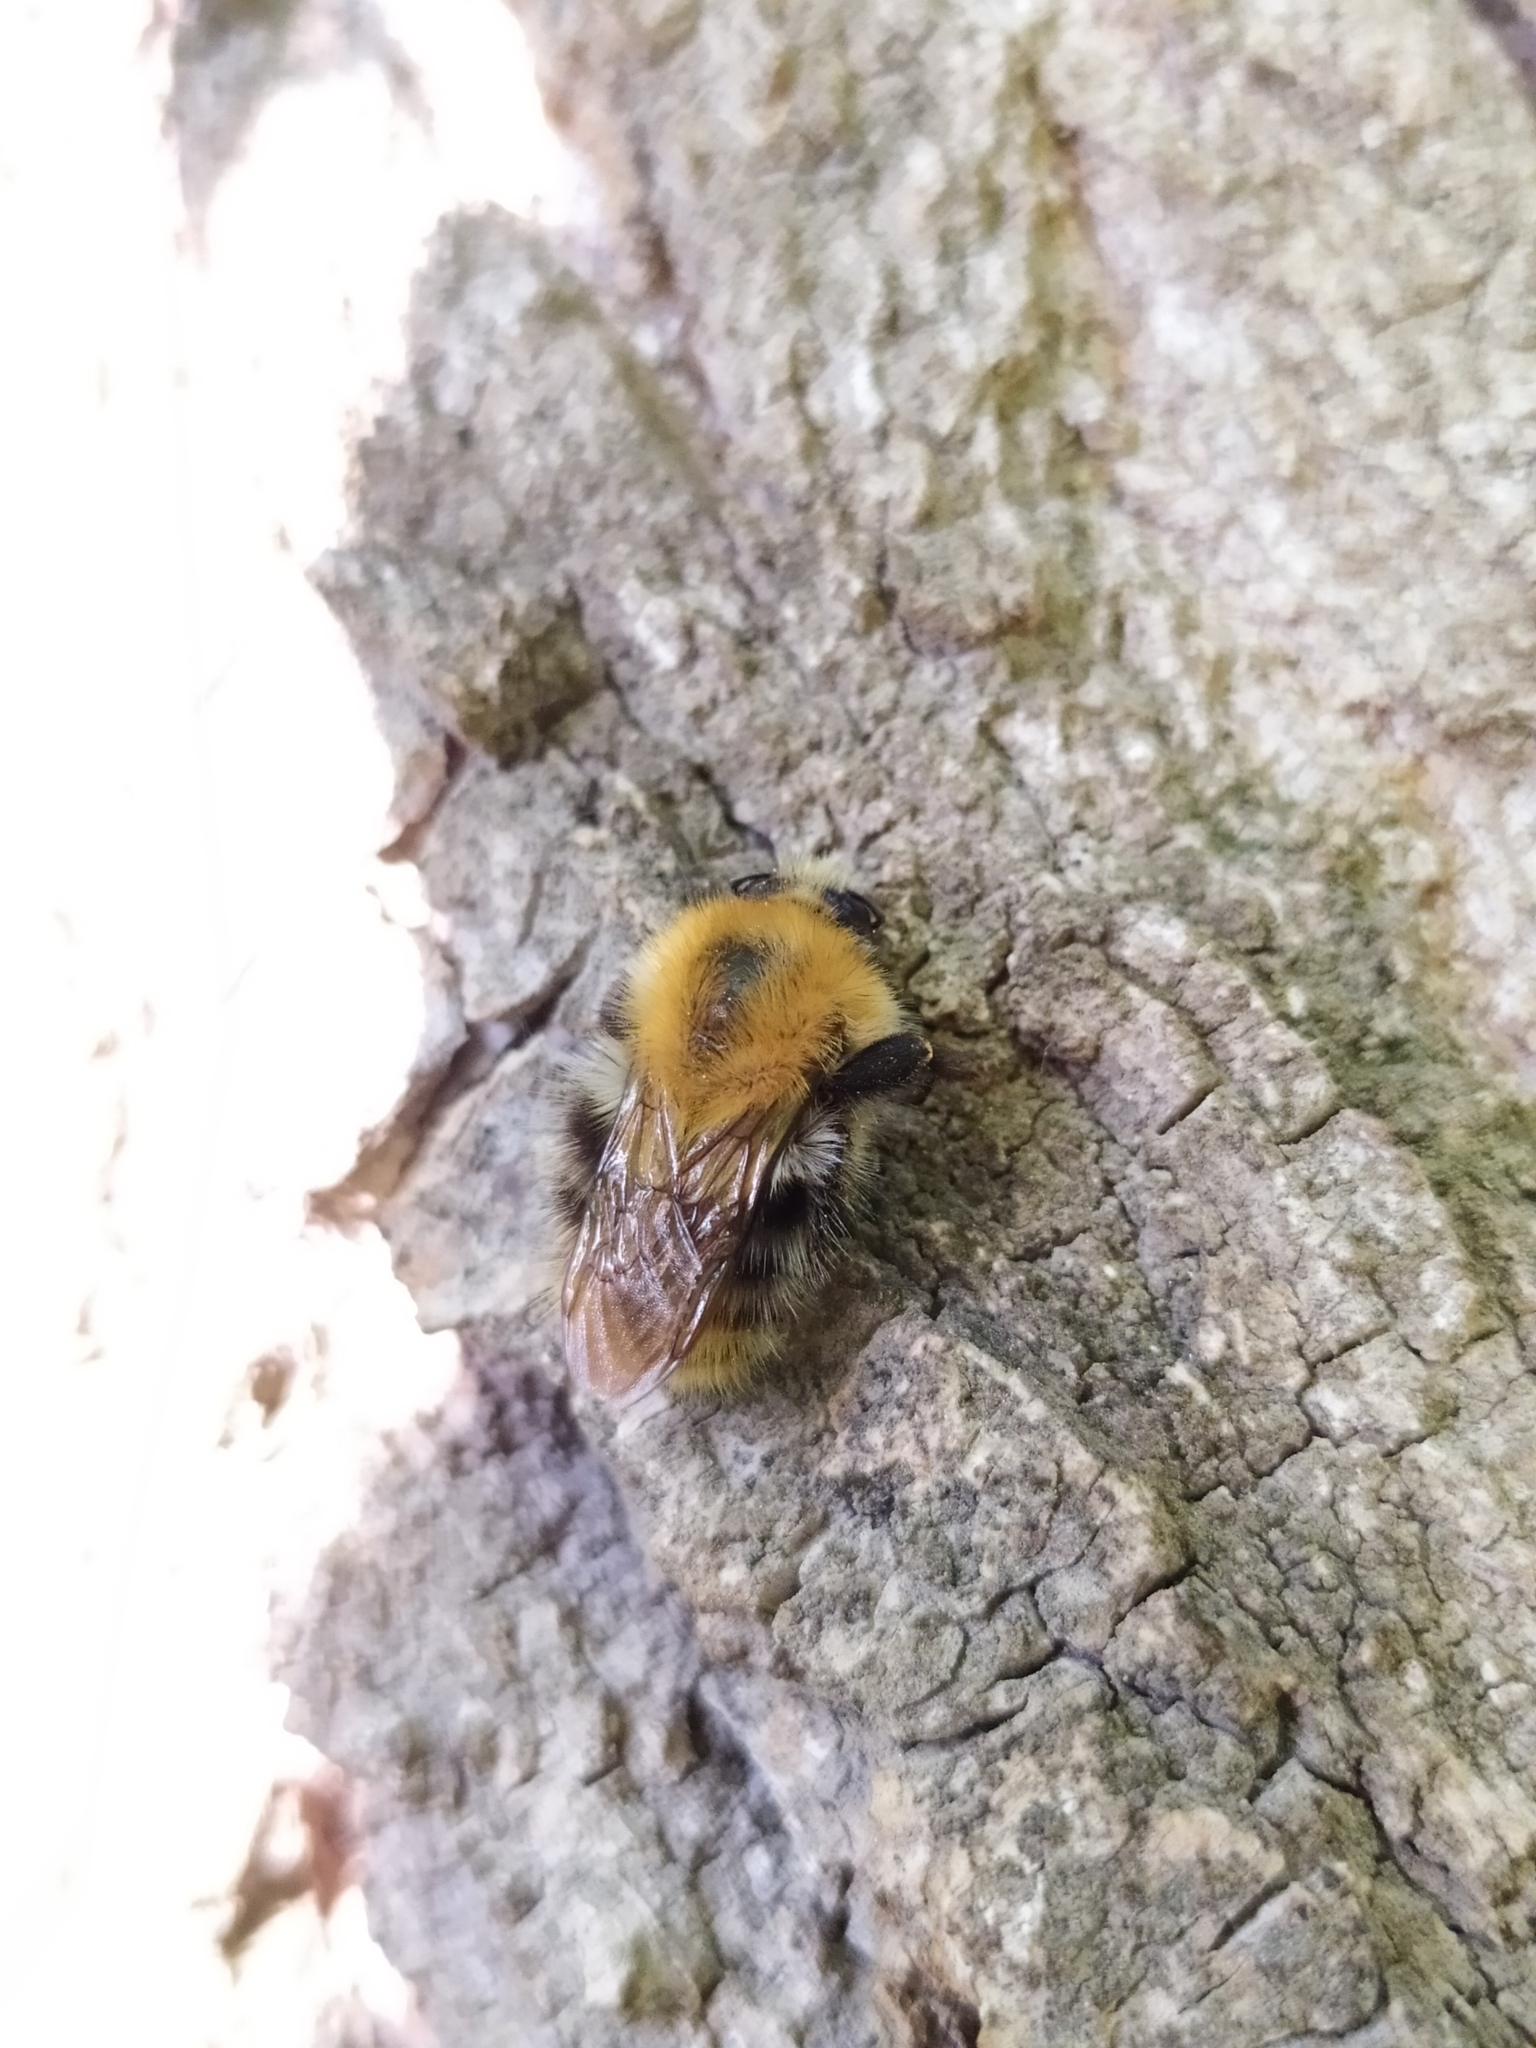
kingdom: Animalia
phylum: Arthropoda
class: Insecta
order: Hymenoptera
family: Apidae
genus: Bombus
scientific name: Bombus pascuorum
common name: Common carder bee
